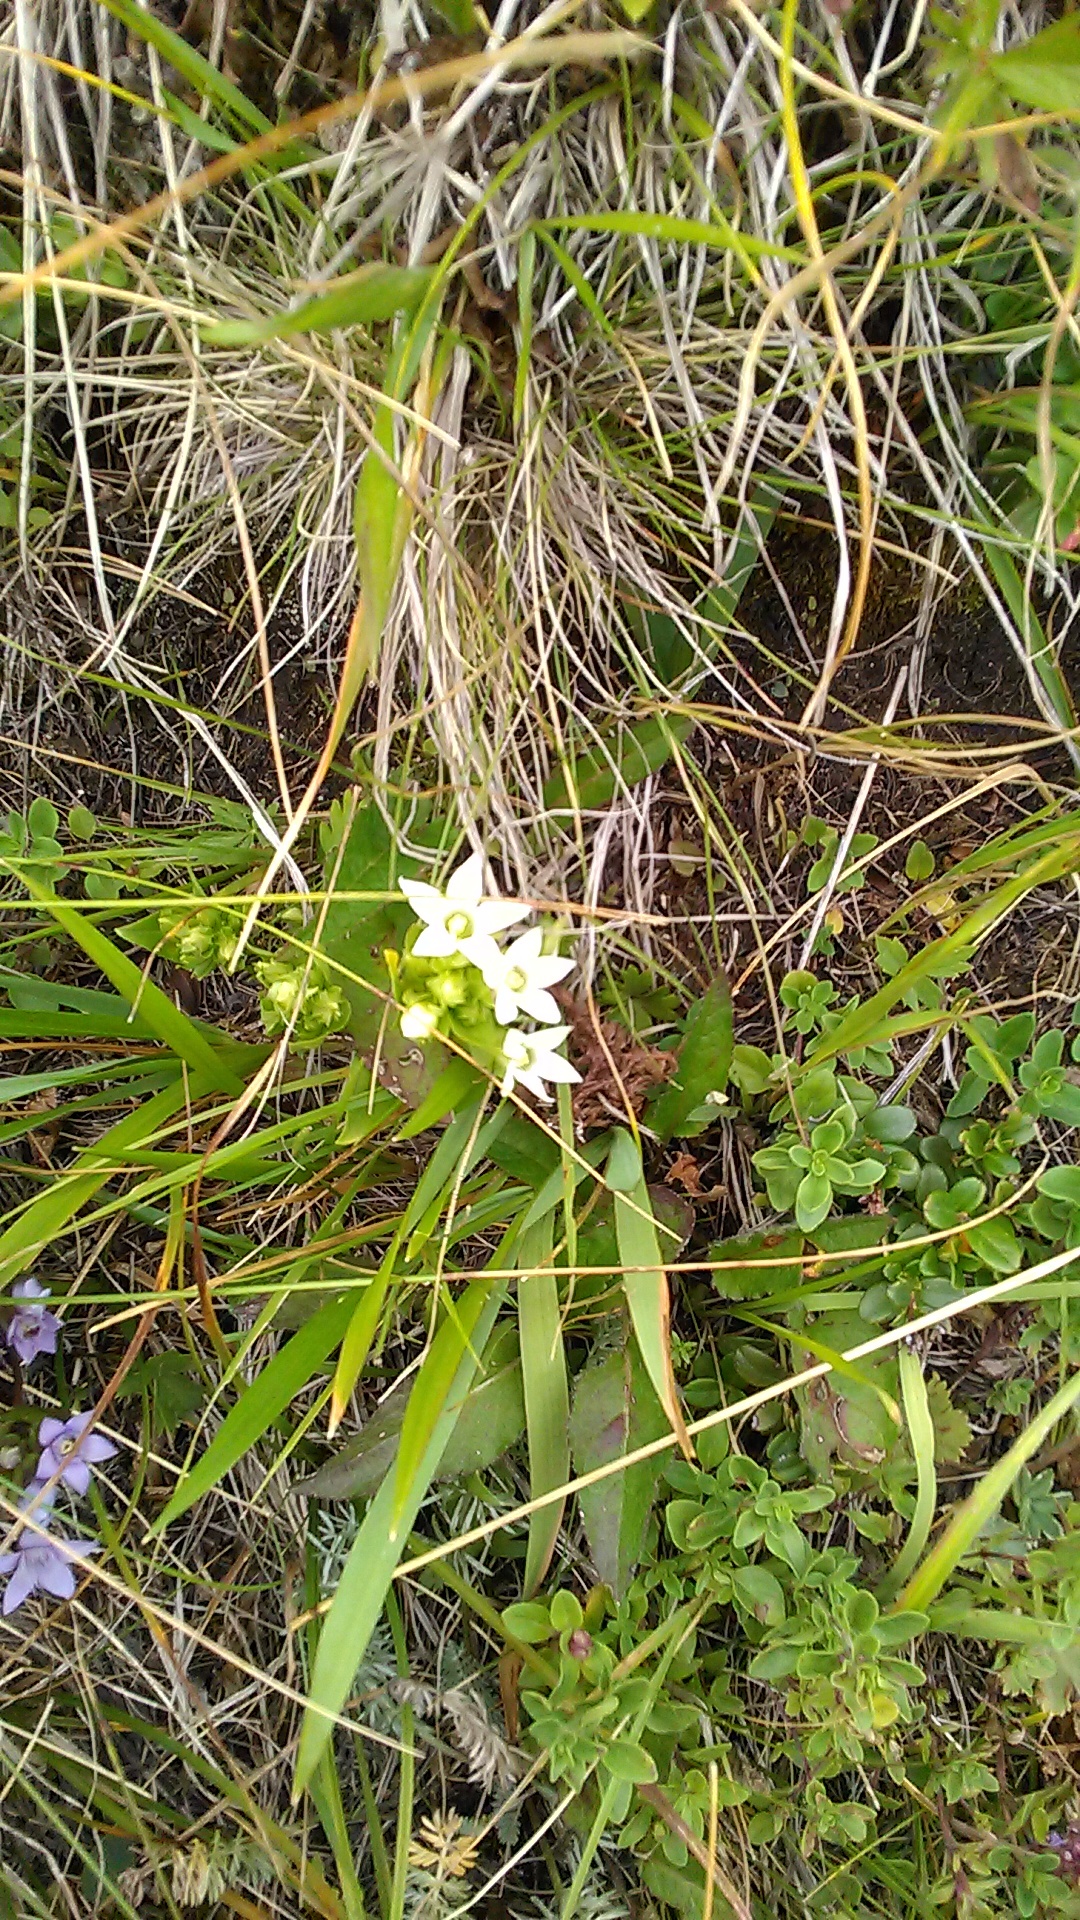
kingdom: Plantae
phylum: Tracheophyta
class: Magnoliopsida
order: Gentianales
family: Gentianaceae
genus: Gentianella
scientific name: Gentianella biebersteinii
